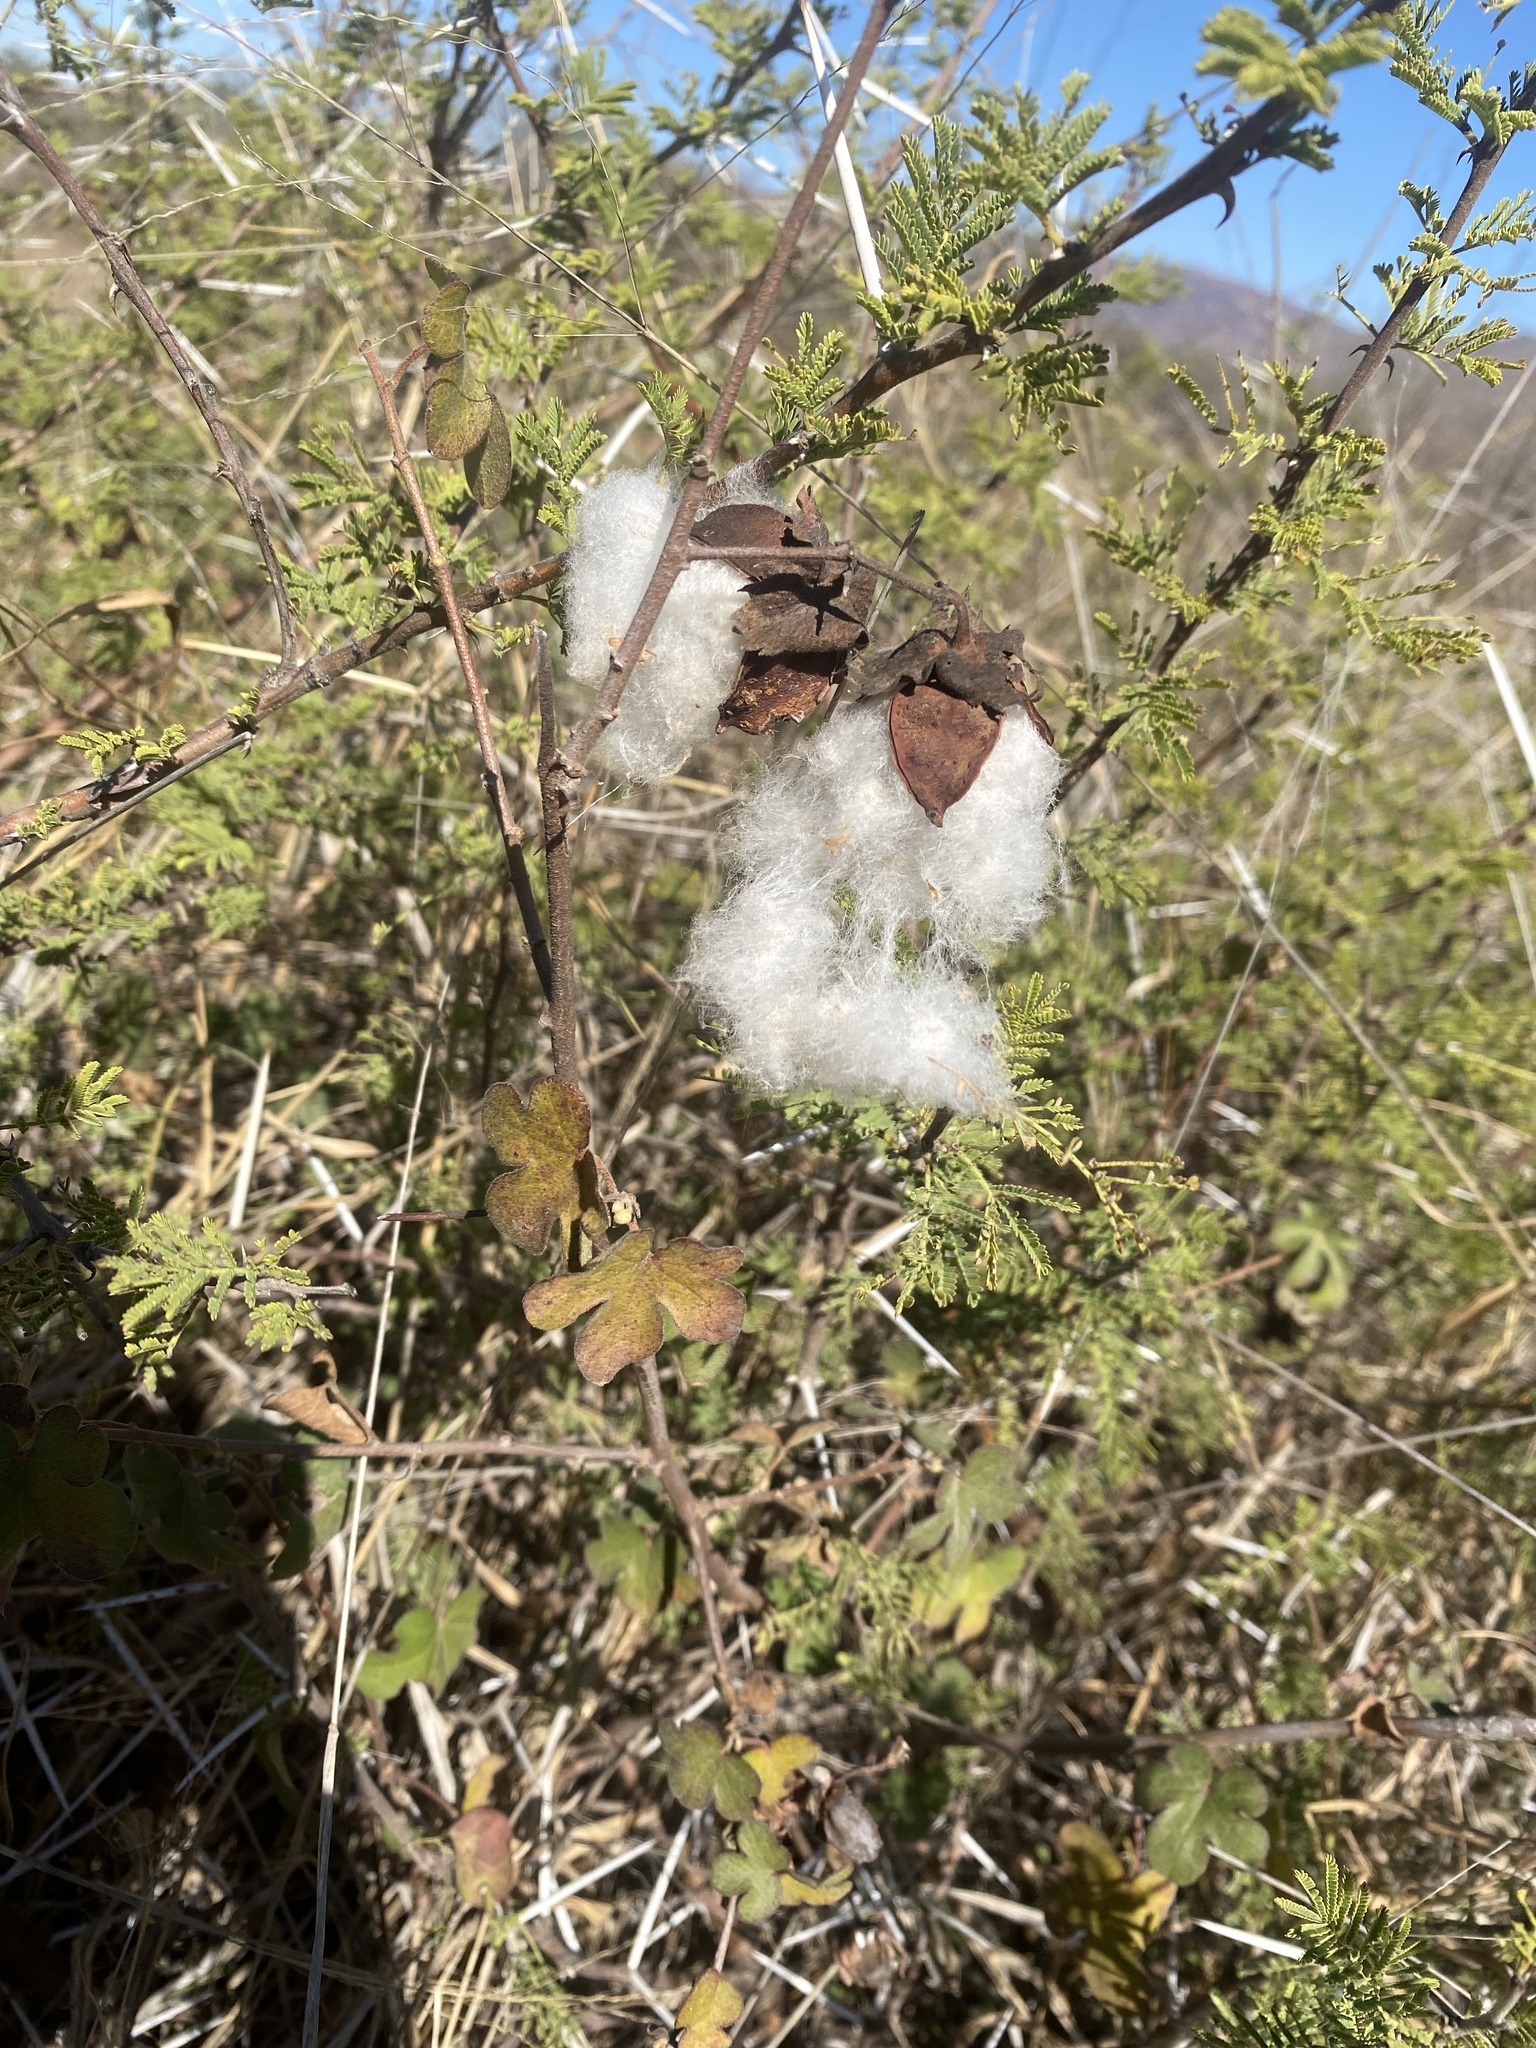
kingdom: Plantae
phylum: Tracheophyta
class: Magnoliopsida
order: Malvales
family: Malvaceae
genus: Gossypium
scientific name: Gossypium herbaceum
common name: Levant cotton
